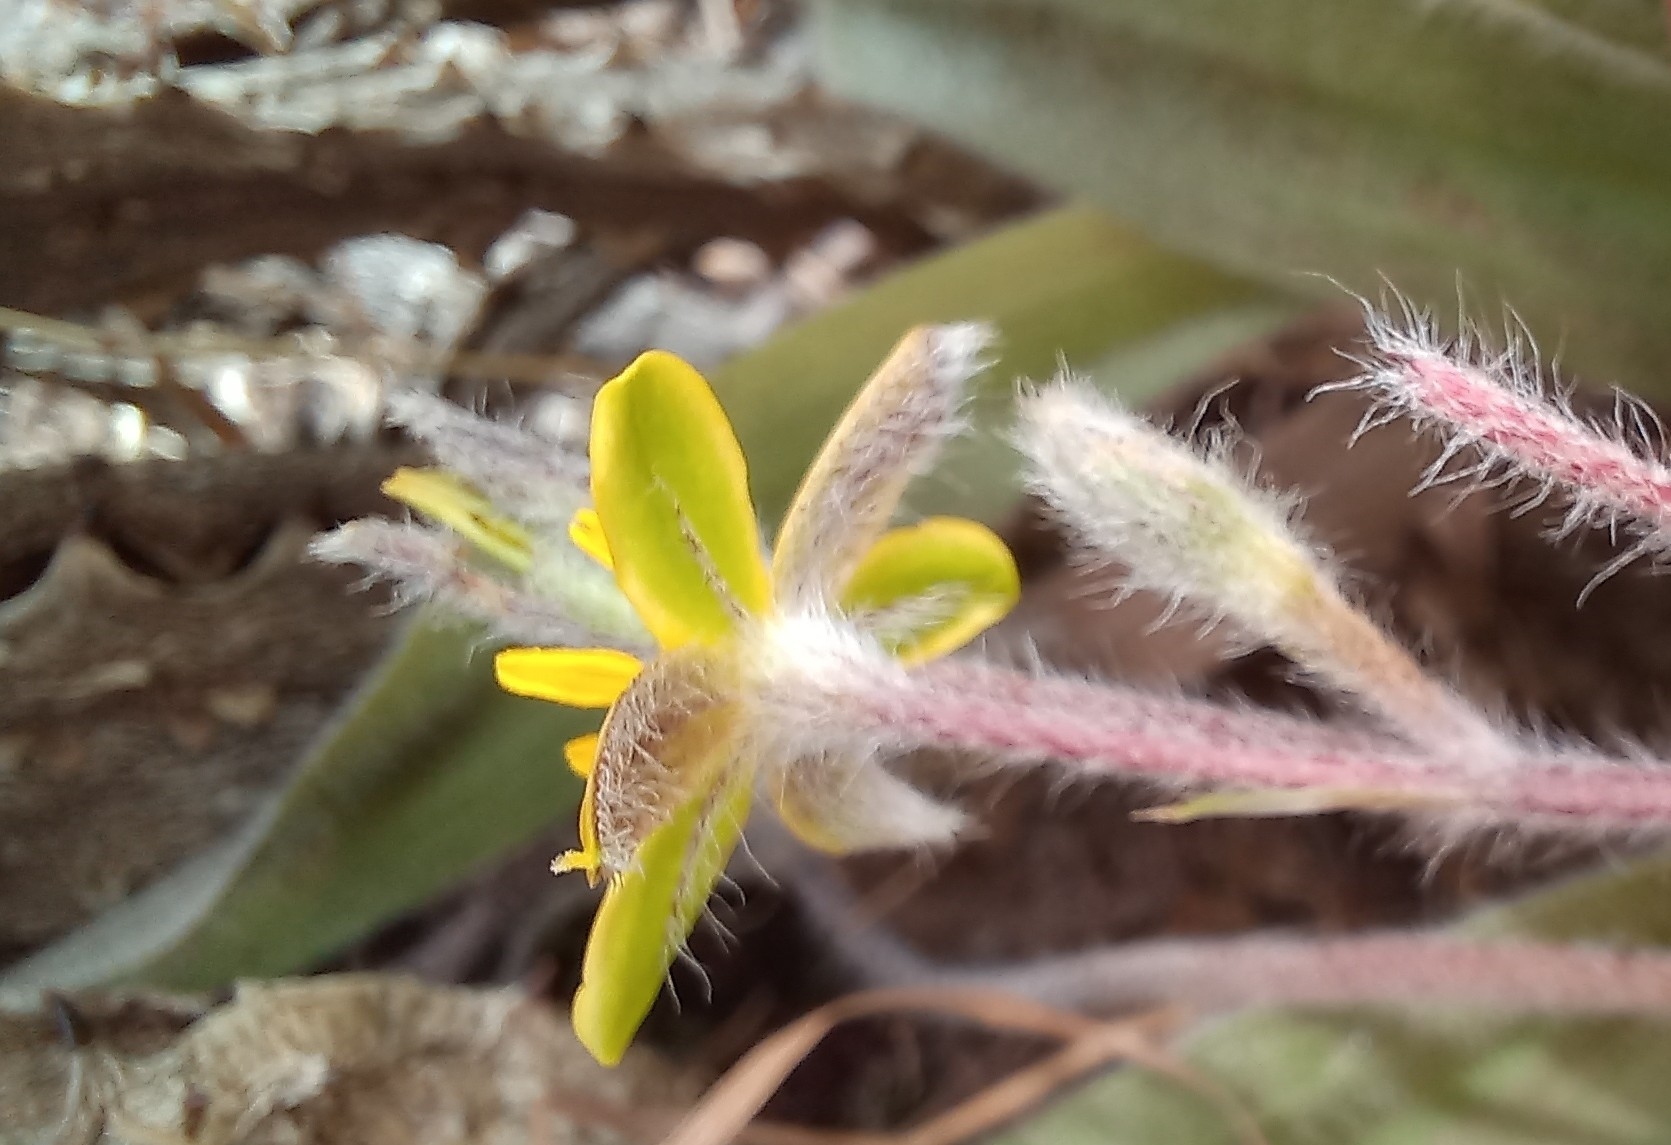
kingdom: Plantae
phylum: Tracheophyta
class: Liliopsida
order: Asparagales
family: Hypoxidaceae
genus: Hypoxis
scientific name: Hypoxis villosa
